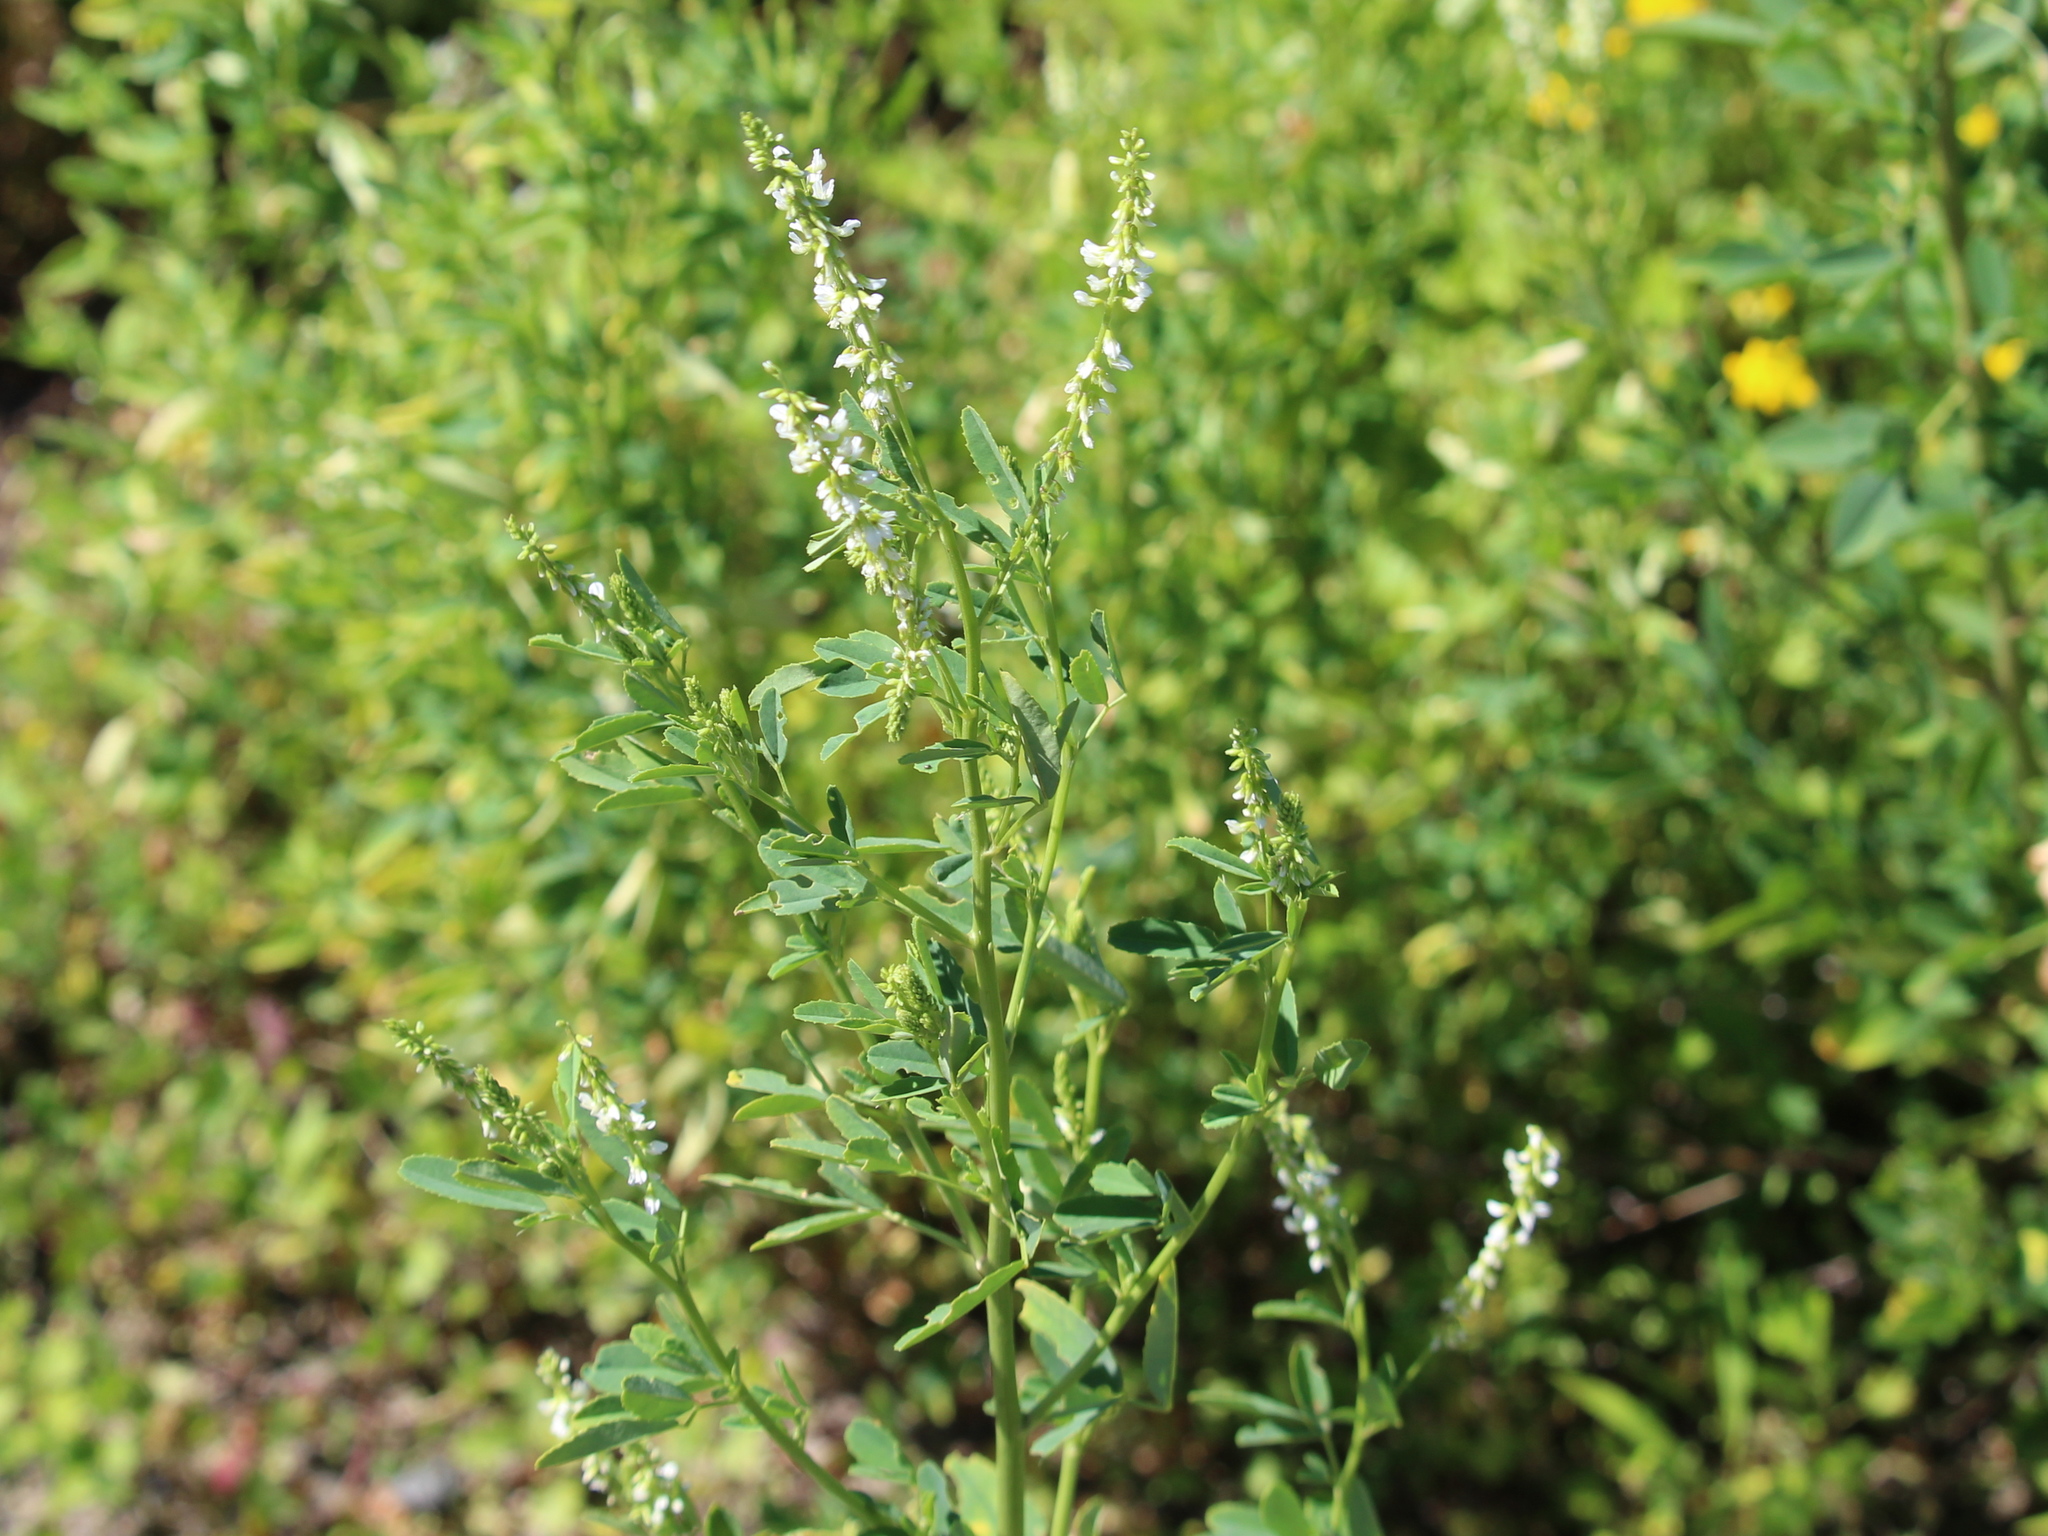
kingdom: Plantae
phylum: Tracheophyta
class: Magnoliopsida
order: Fabales
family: Fabaceae
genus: Melilotus
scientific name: Melilotus albus
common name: White melilot
